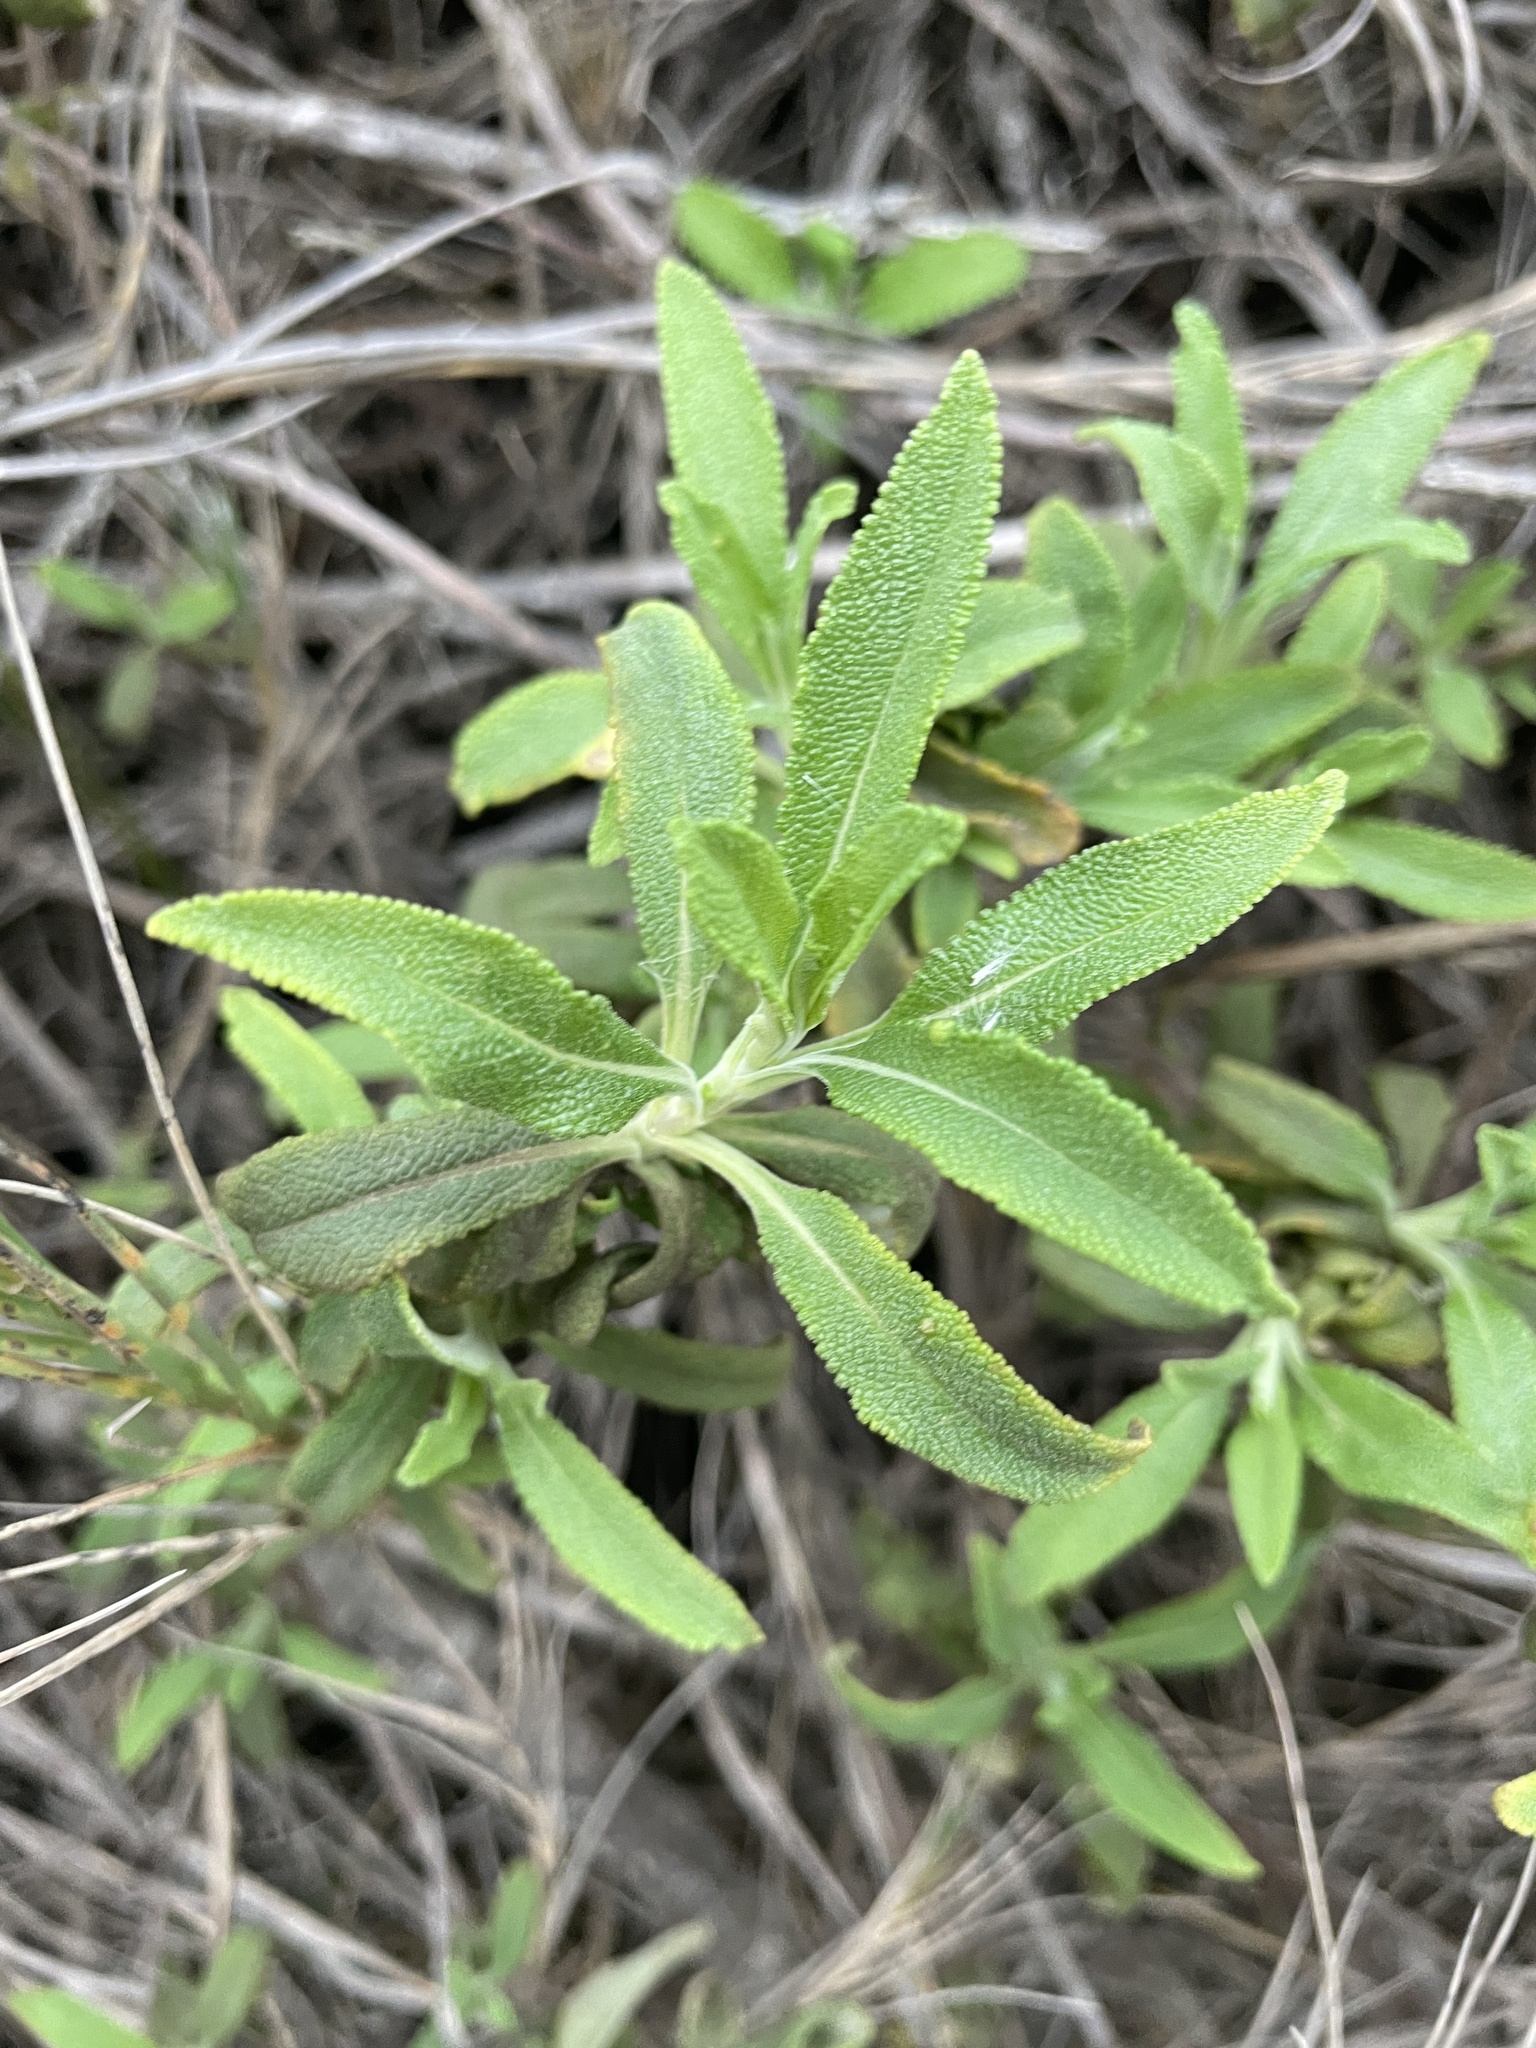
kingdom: Plantae
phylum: Tracheophyta
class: Magnoliopsida
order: Lamiales
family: Lamiaceae
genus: Salvia
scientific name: Salvia mellifera
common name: Black sage
